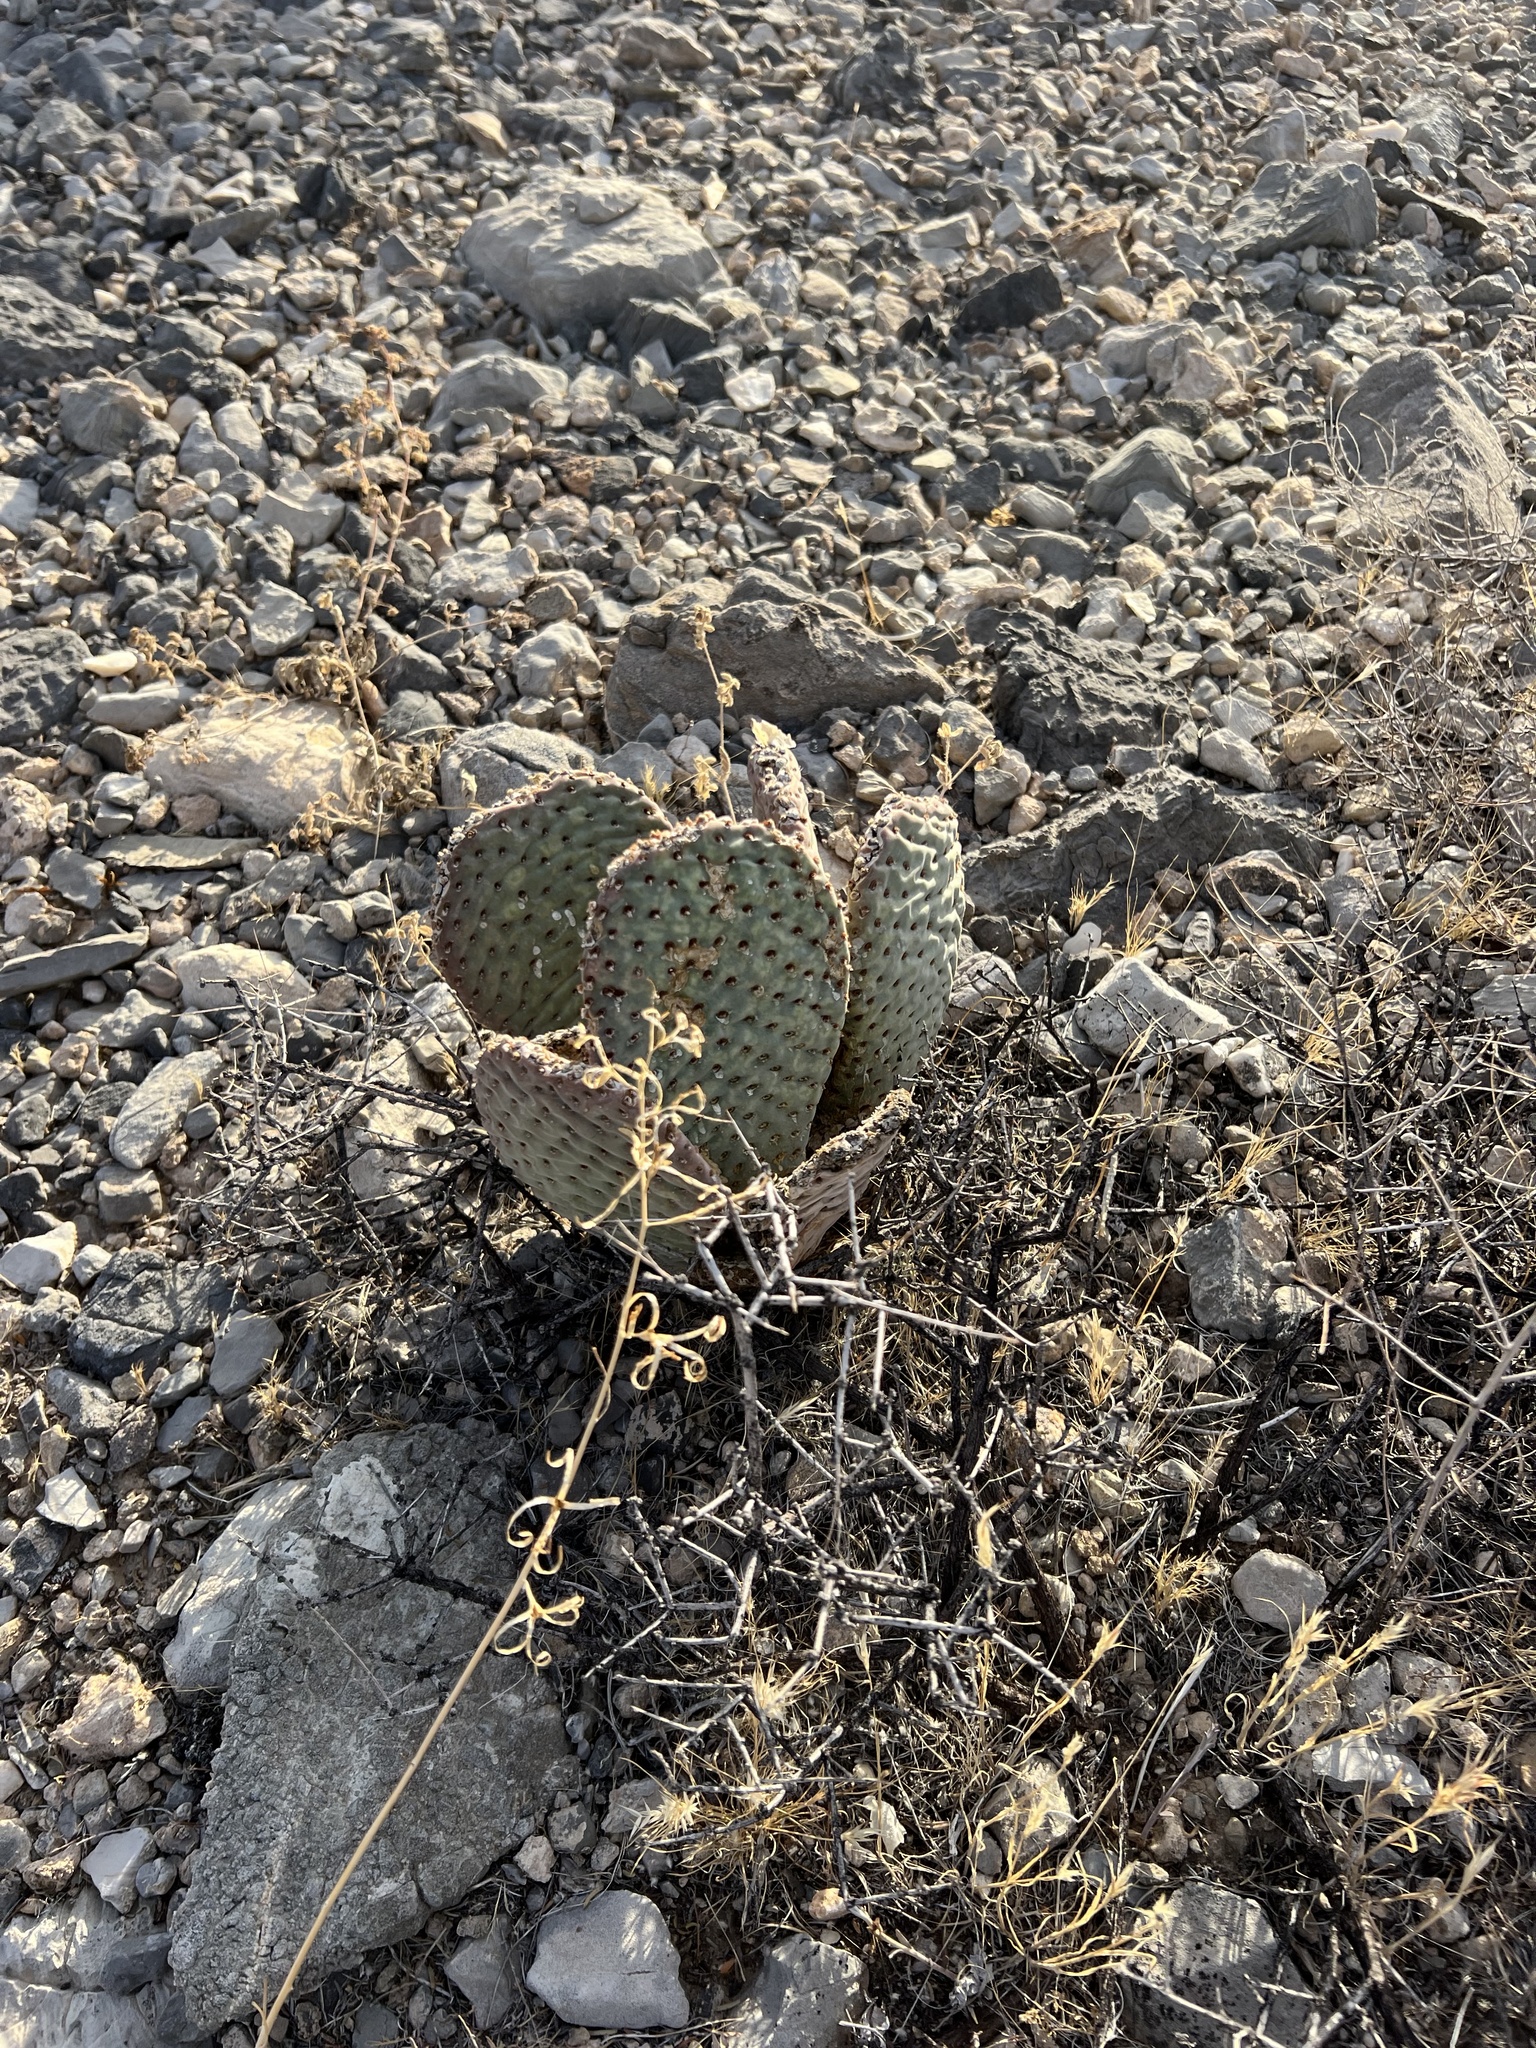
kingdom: Plantae
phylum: Tracheophyta
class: Magnoliopsida
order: Caryophyllales
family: Cactaceae
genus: Opuntia
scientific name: Opuntia basilaris
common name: Beavertail prickly-pear
